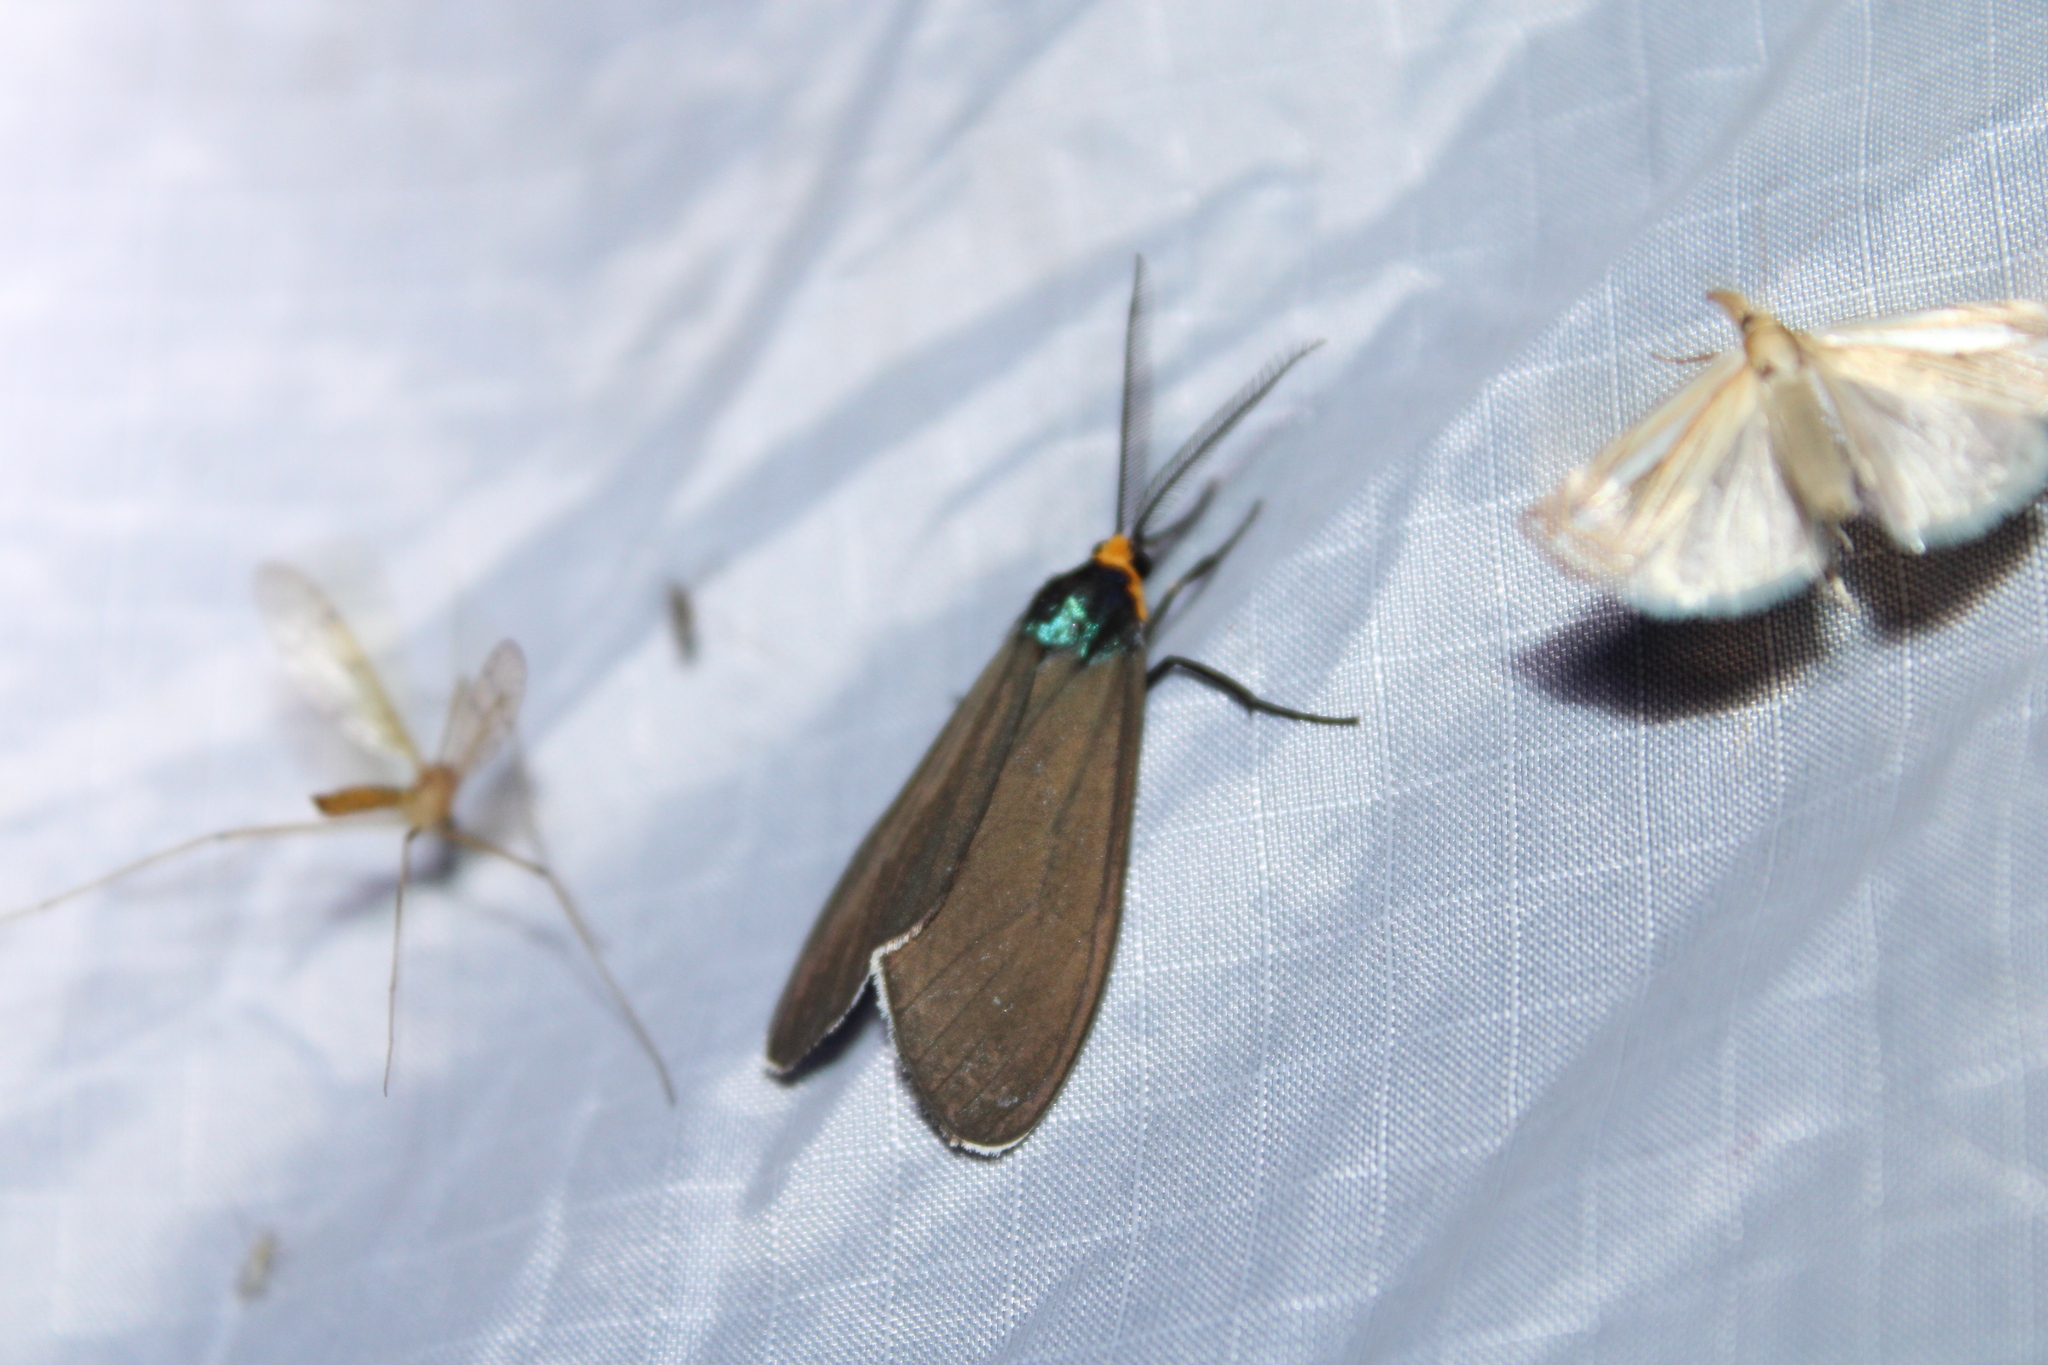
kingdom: Animalia
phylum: Arthropoda
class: Insecta
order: Lepidoptera
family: Erebidae
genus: Ctenucha
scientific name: Ctenucha virginica
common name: Virginia ctenucha moth
